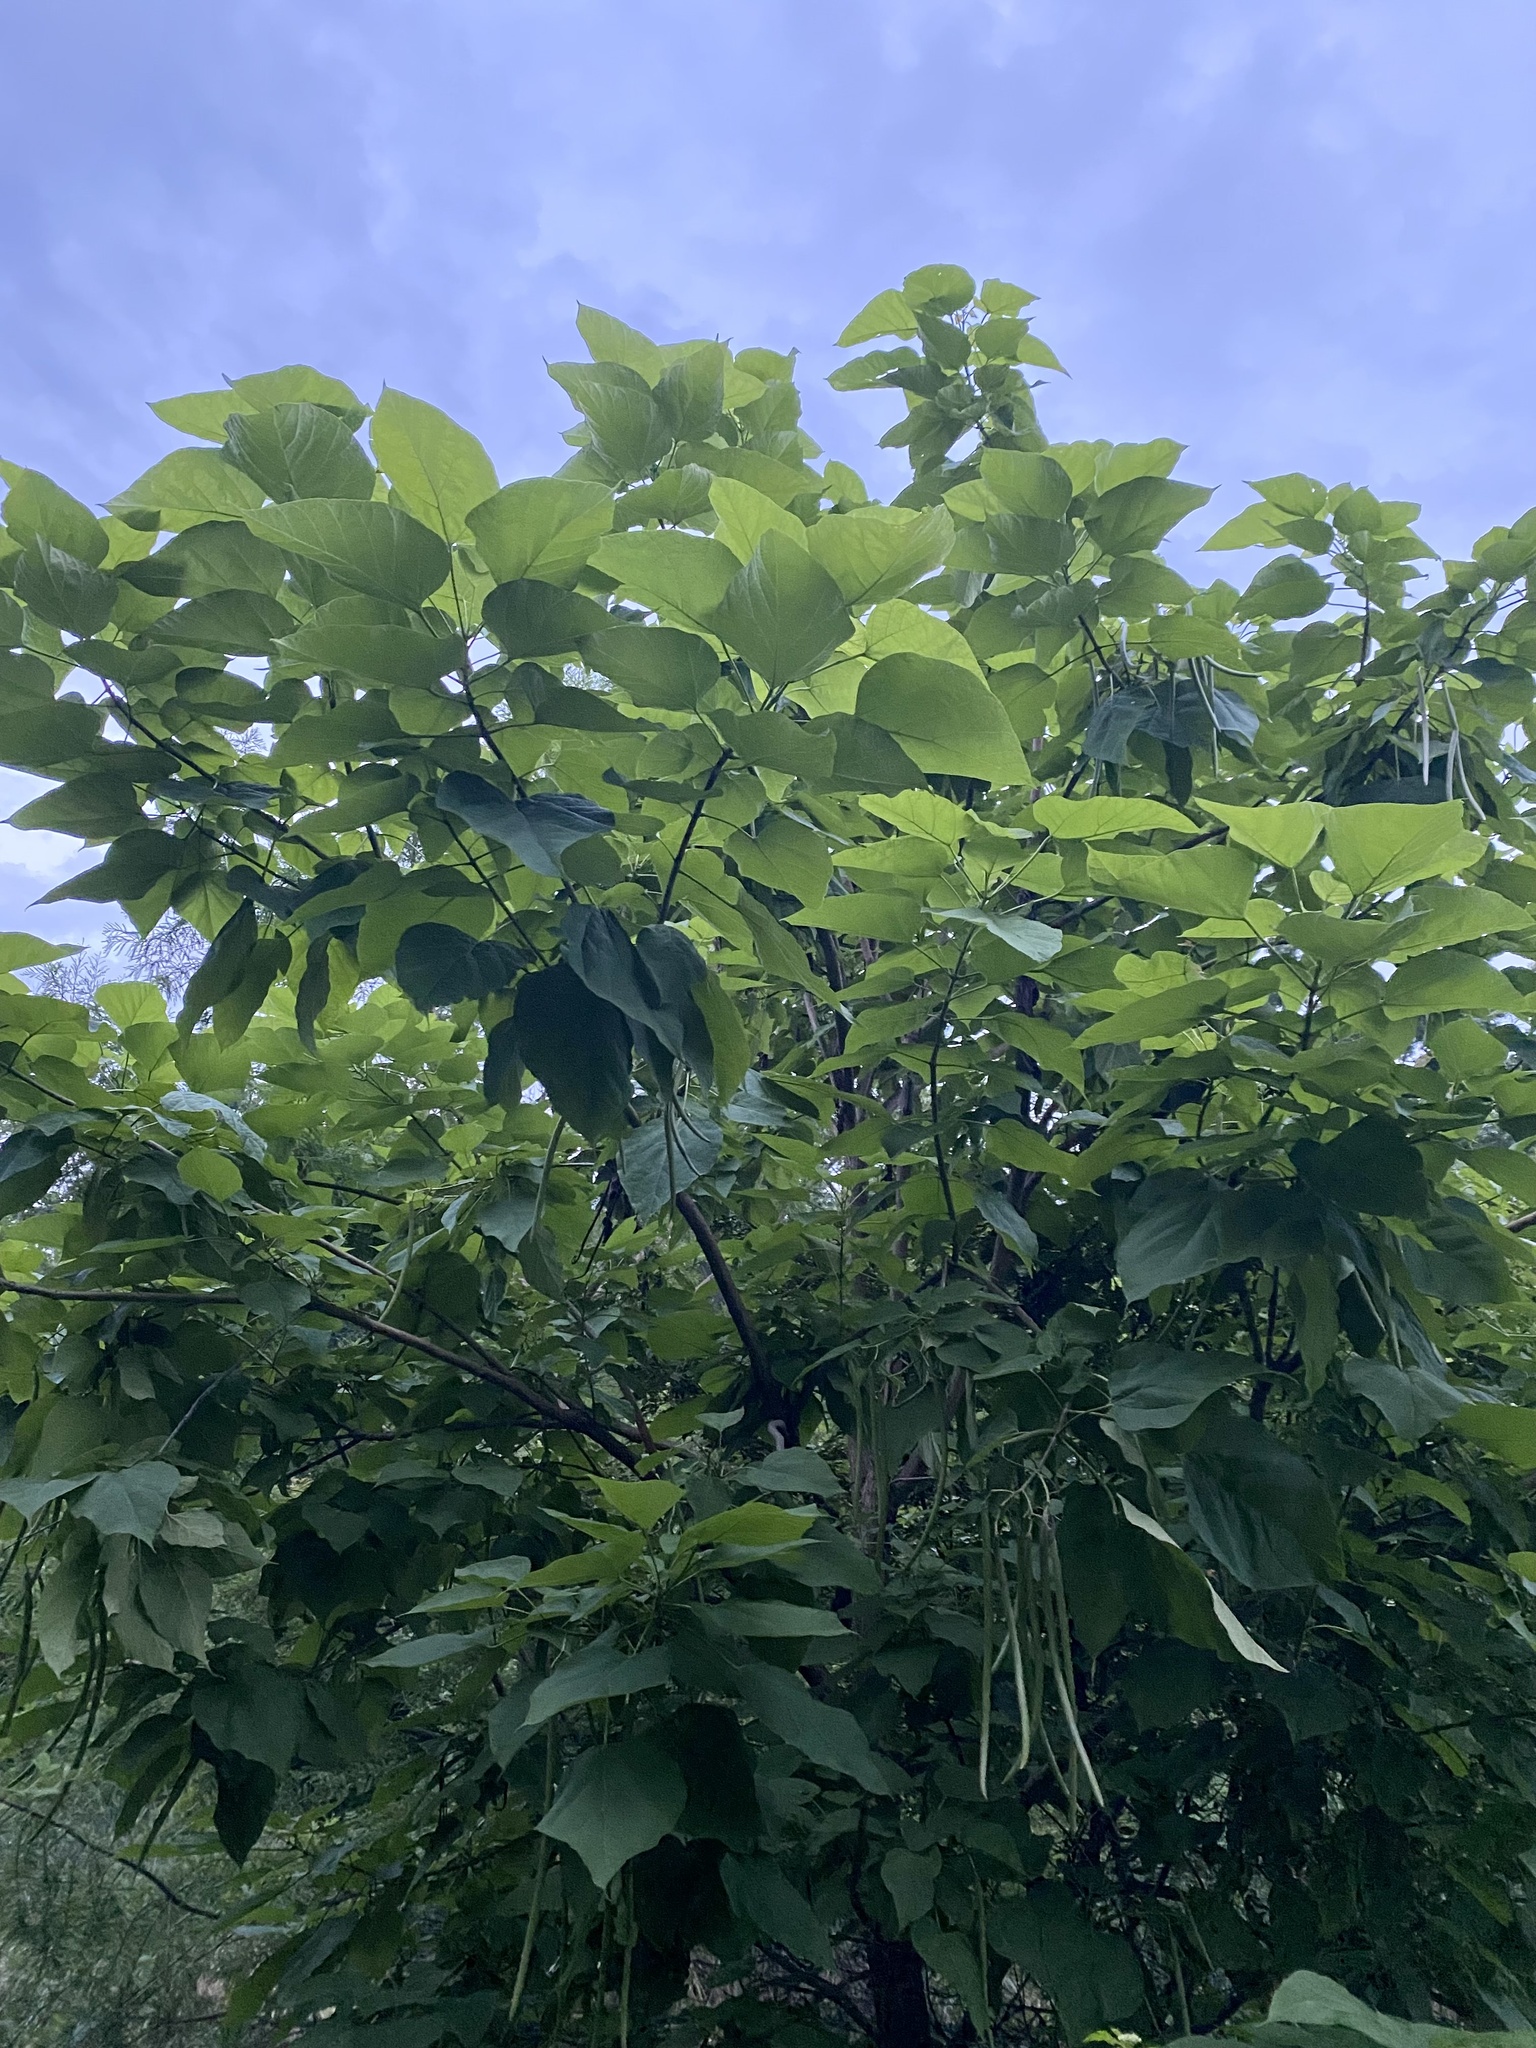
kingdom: Plantae
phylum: Tracheophyta
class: Magnoliopsida
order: Lamiales
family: Bignoniaceae
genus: Catalpa
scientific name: Catalpa speciosa
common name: Northern catalpa
